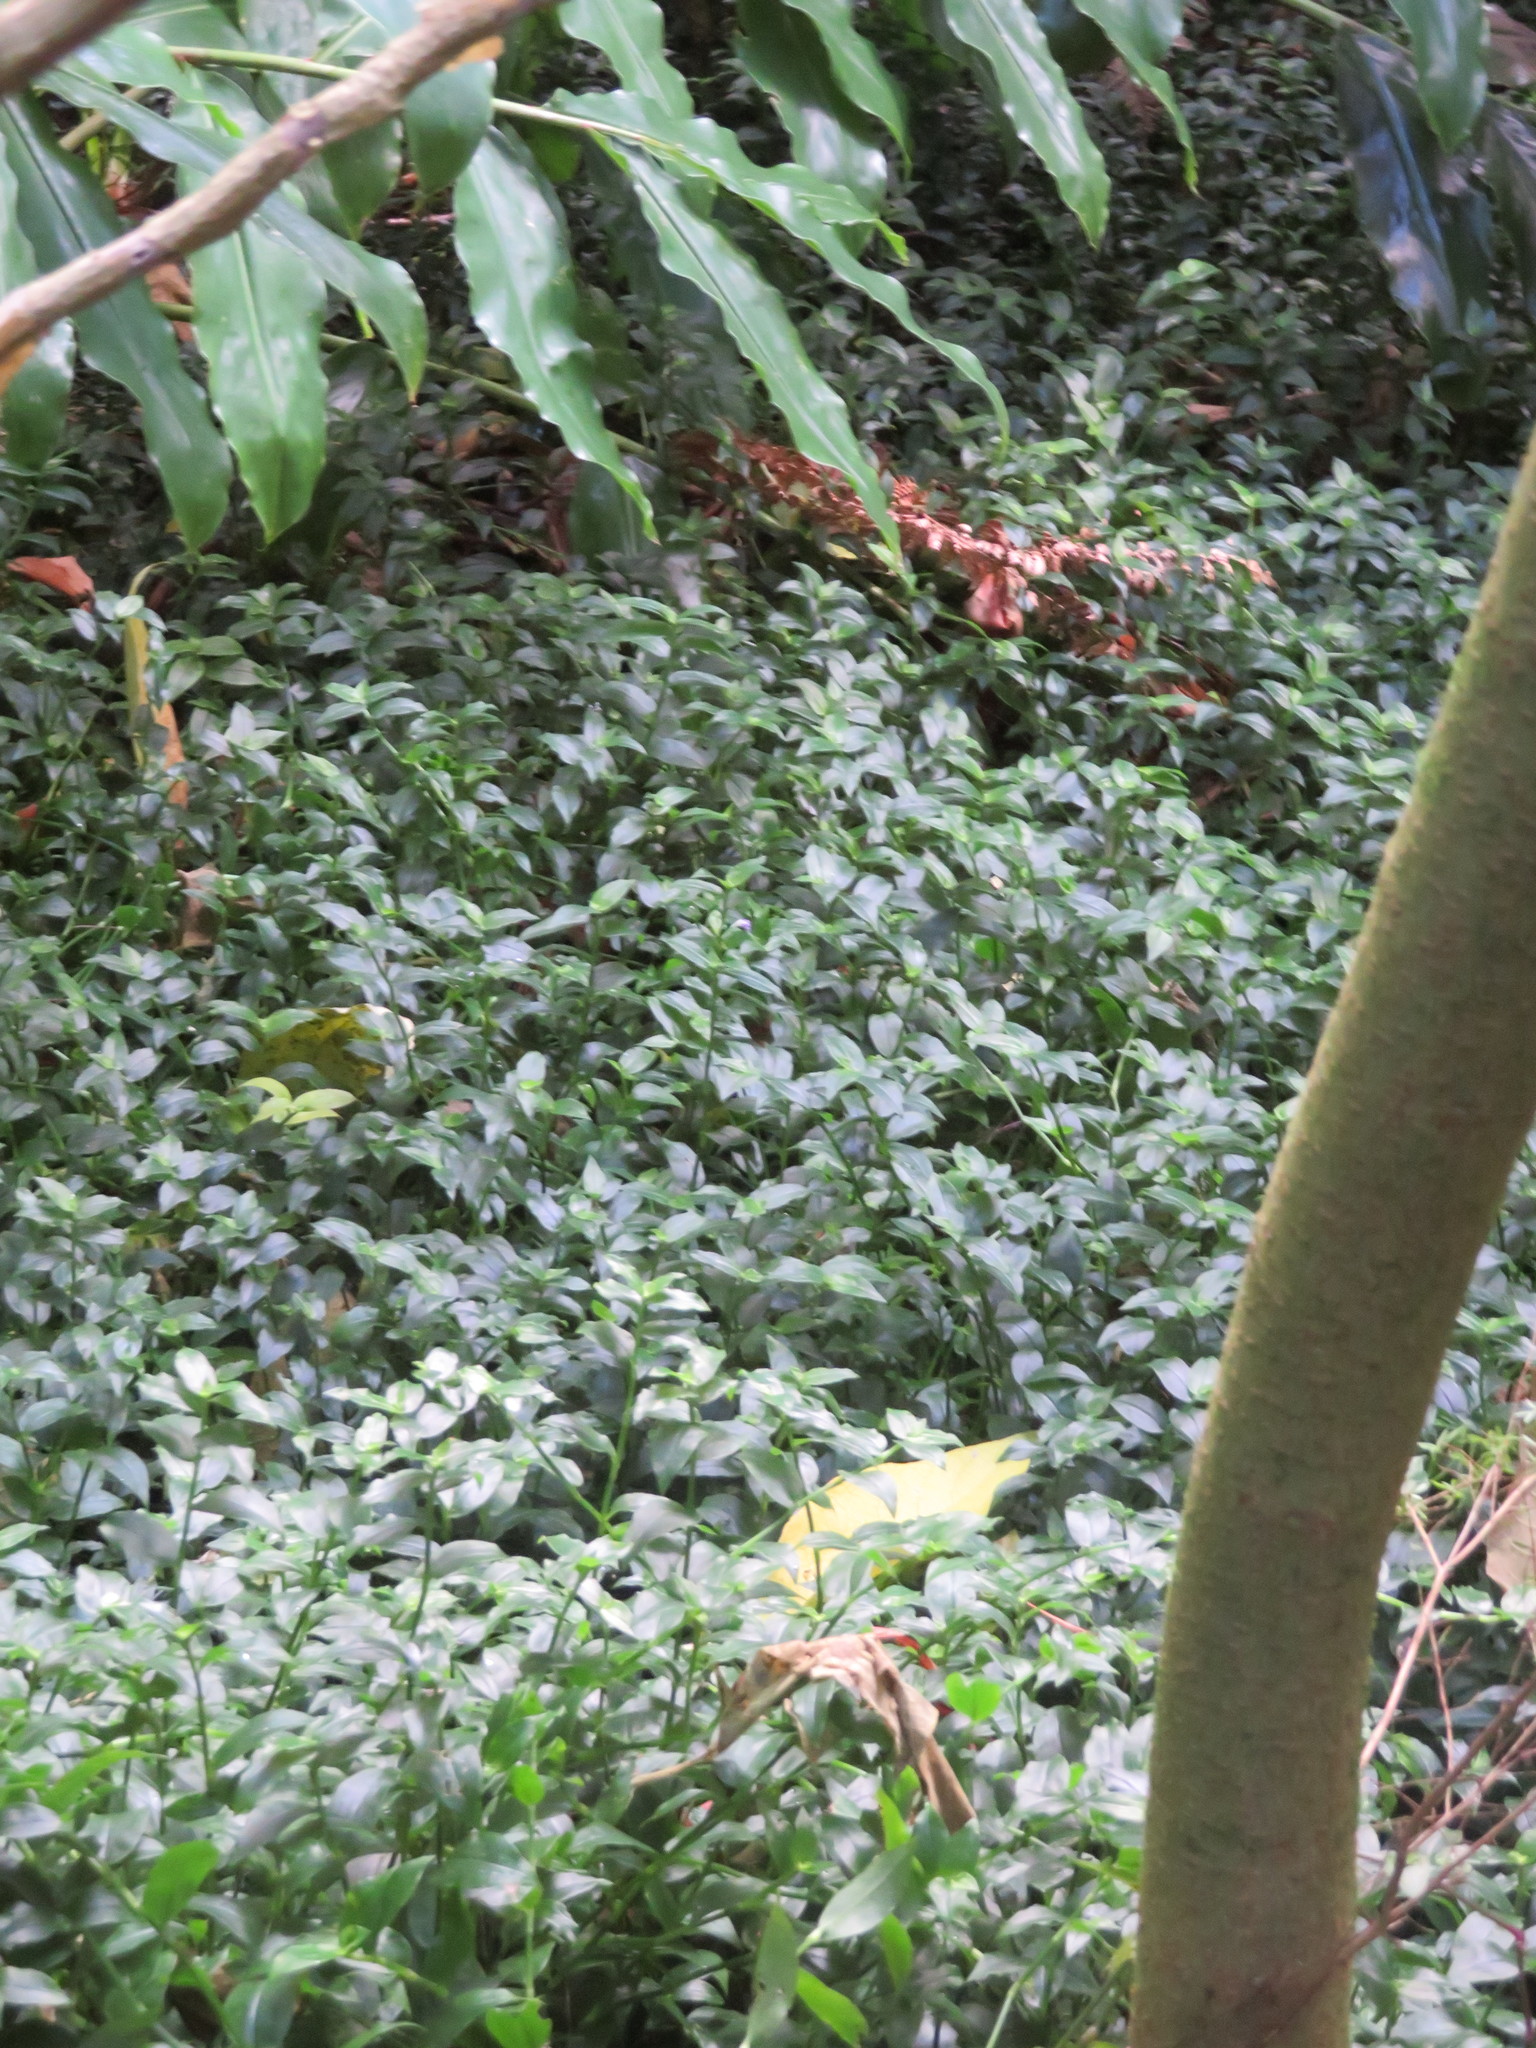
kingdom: Plantae
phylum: Tracheophyta
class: Liliopsida
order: Commelinales
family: Commelinaceae
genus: Tradescantia
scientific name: Tradescantia fluminensis
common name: Wandering-jew
